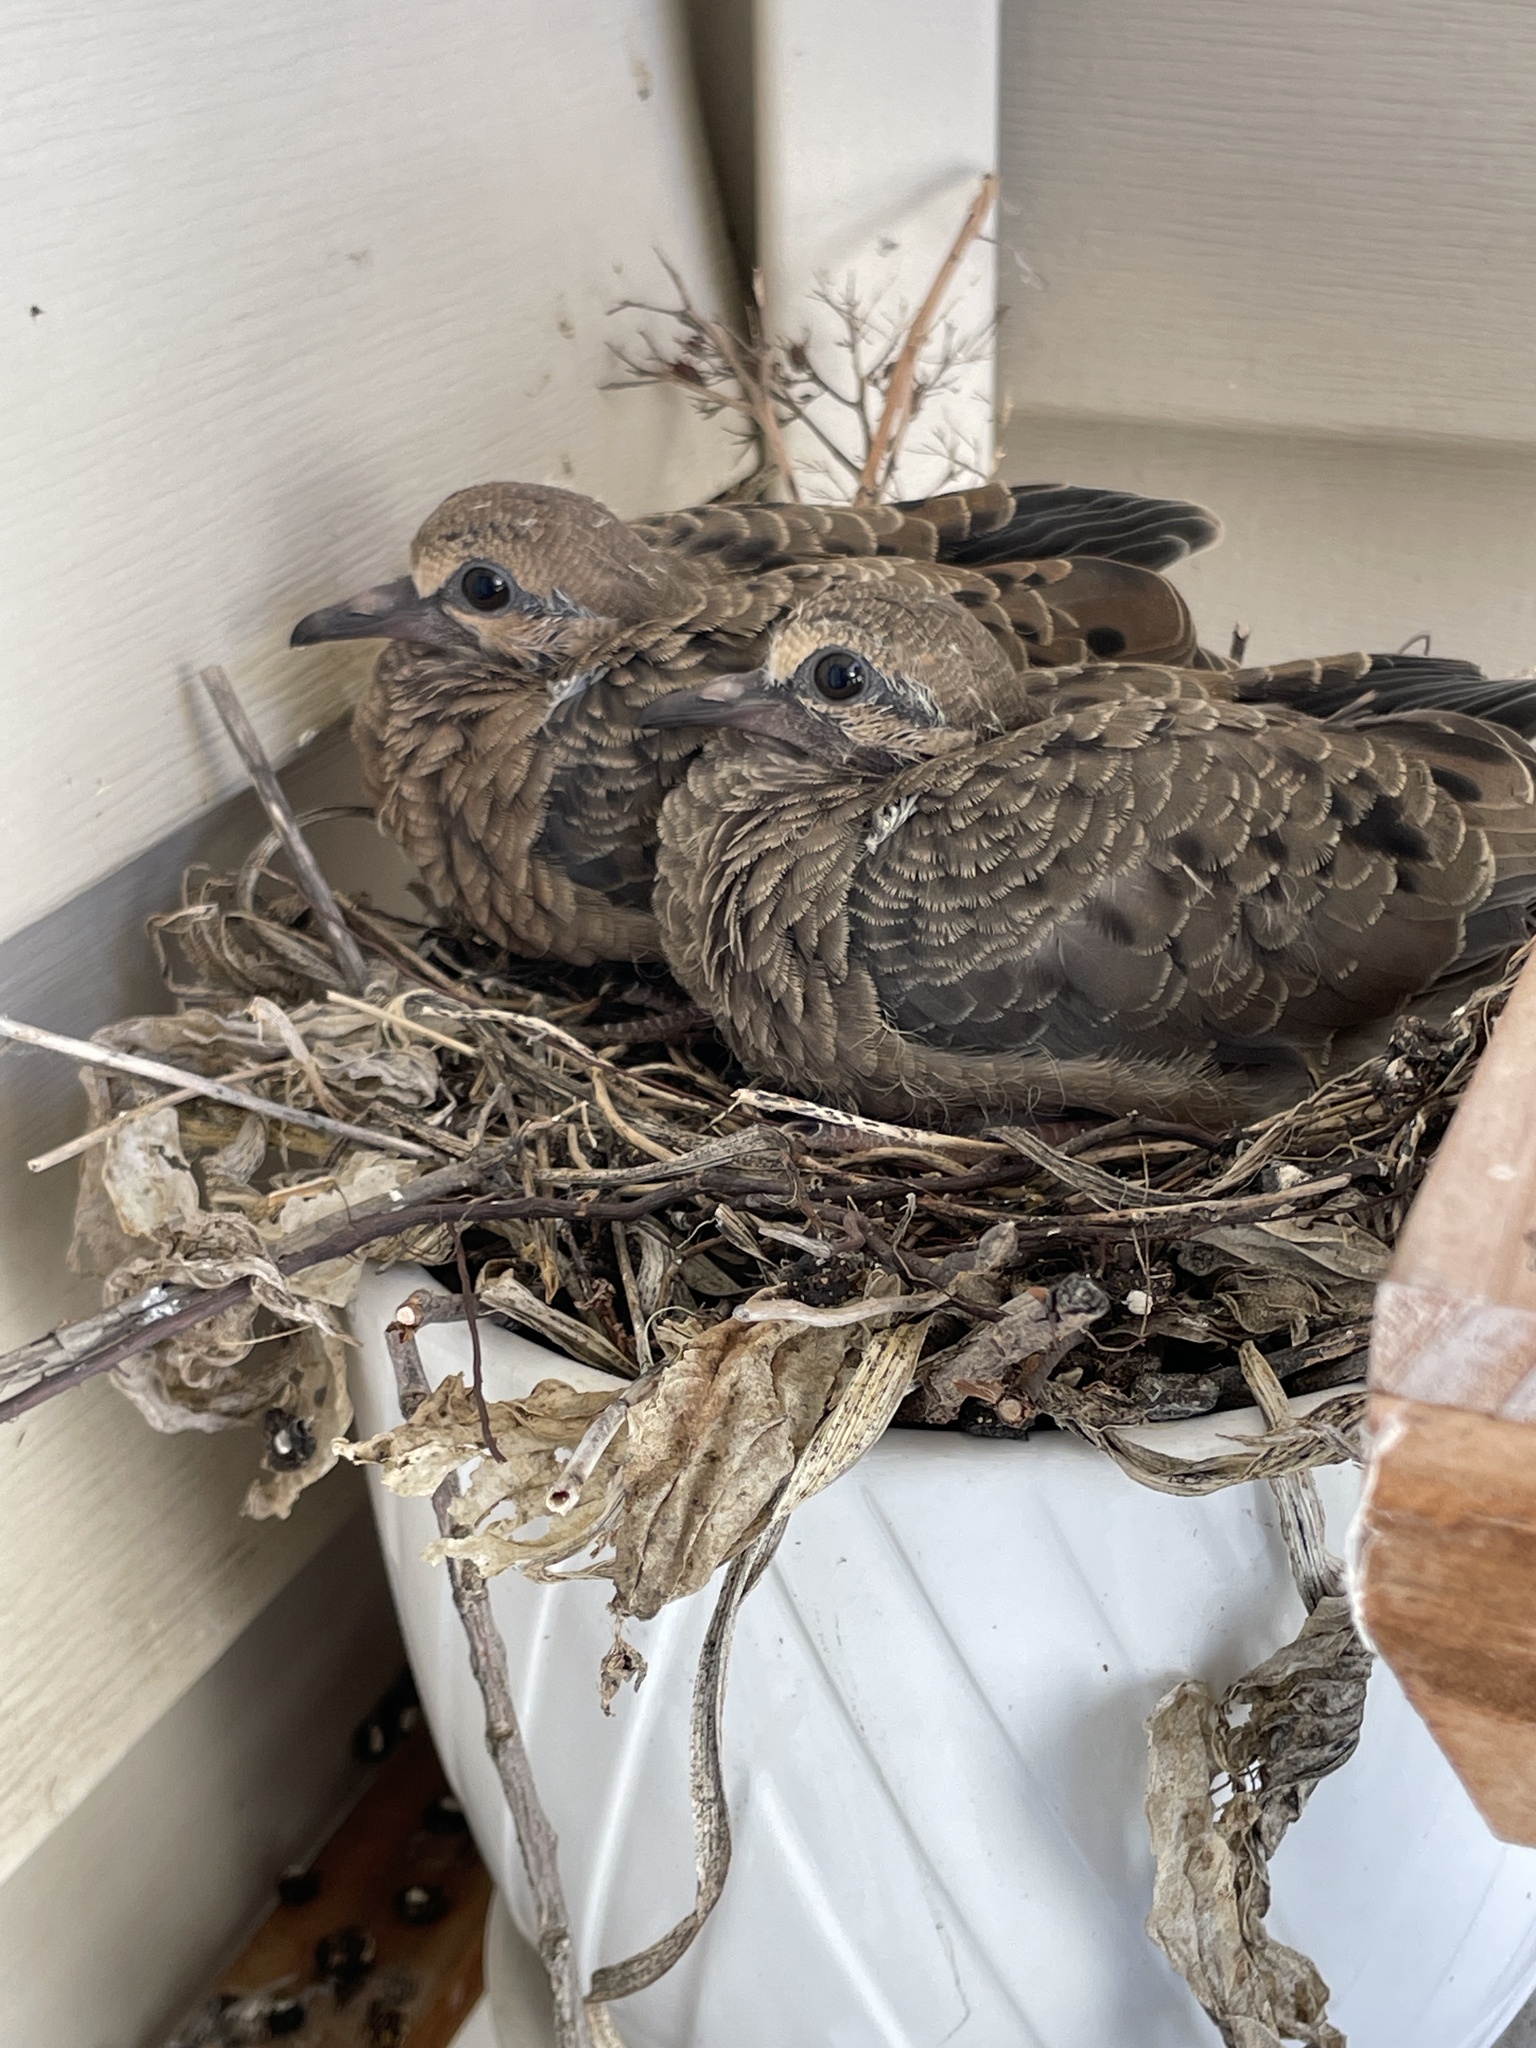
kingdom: Animalia
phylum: Chordata
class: Aves
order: Columbiformes
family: Columbidae
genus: Zenaida
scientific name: Zenaida macroura
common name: Mourning dove
